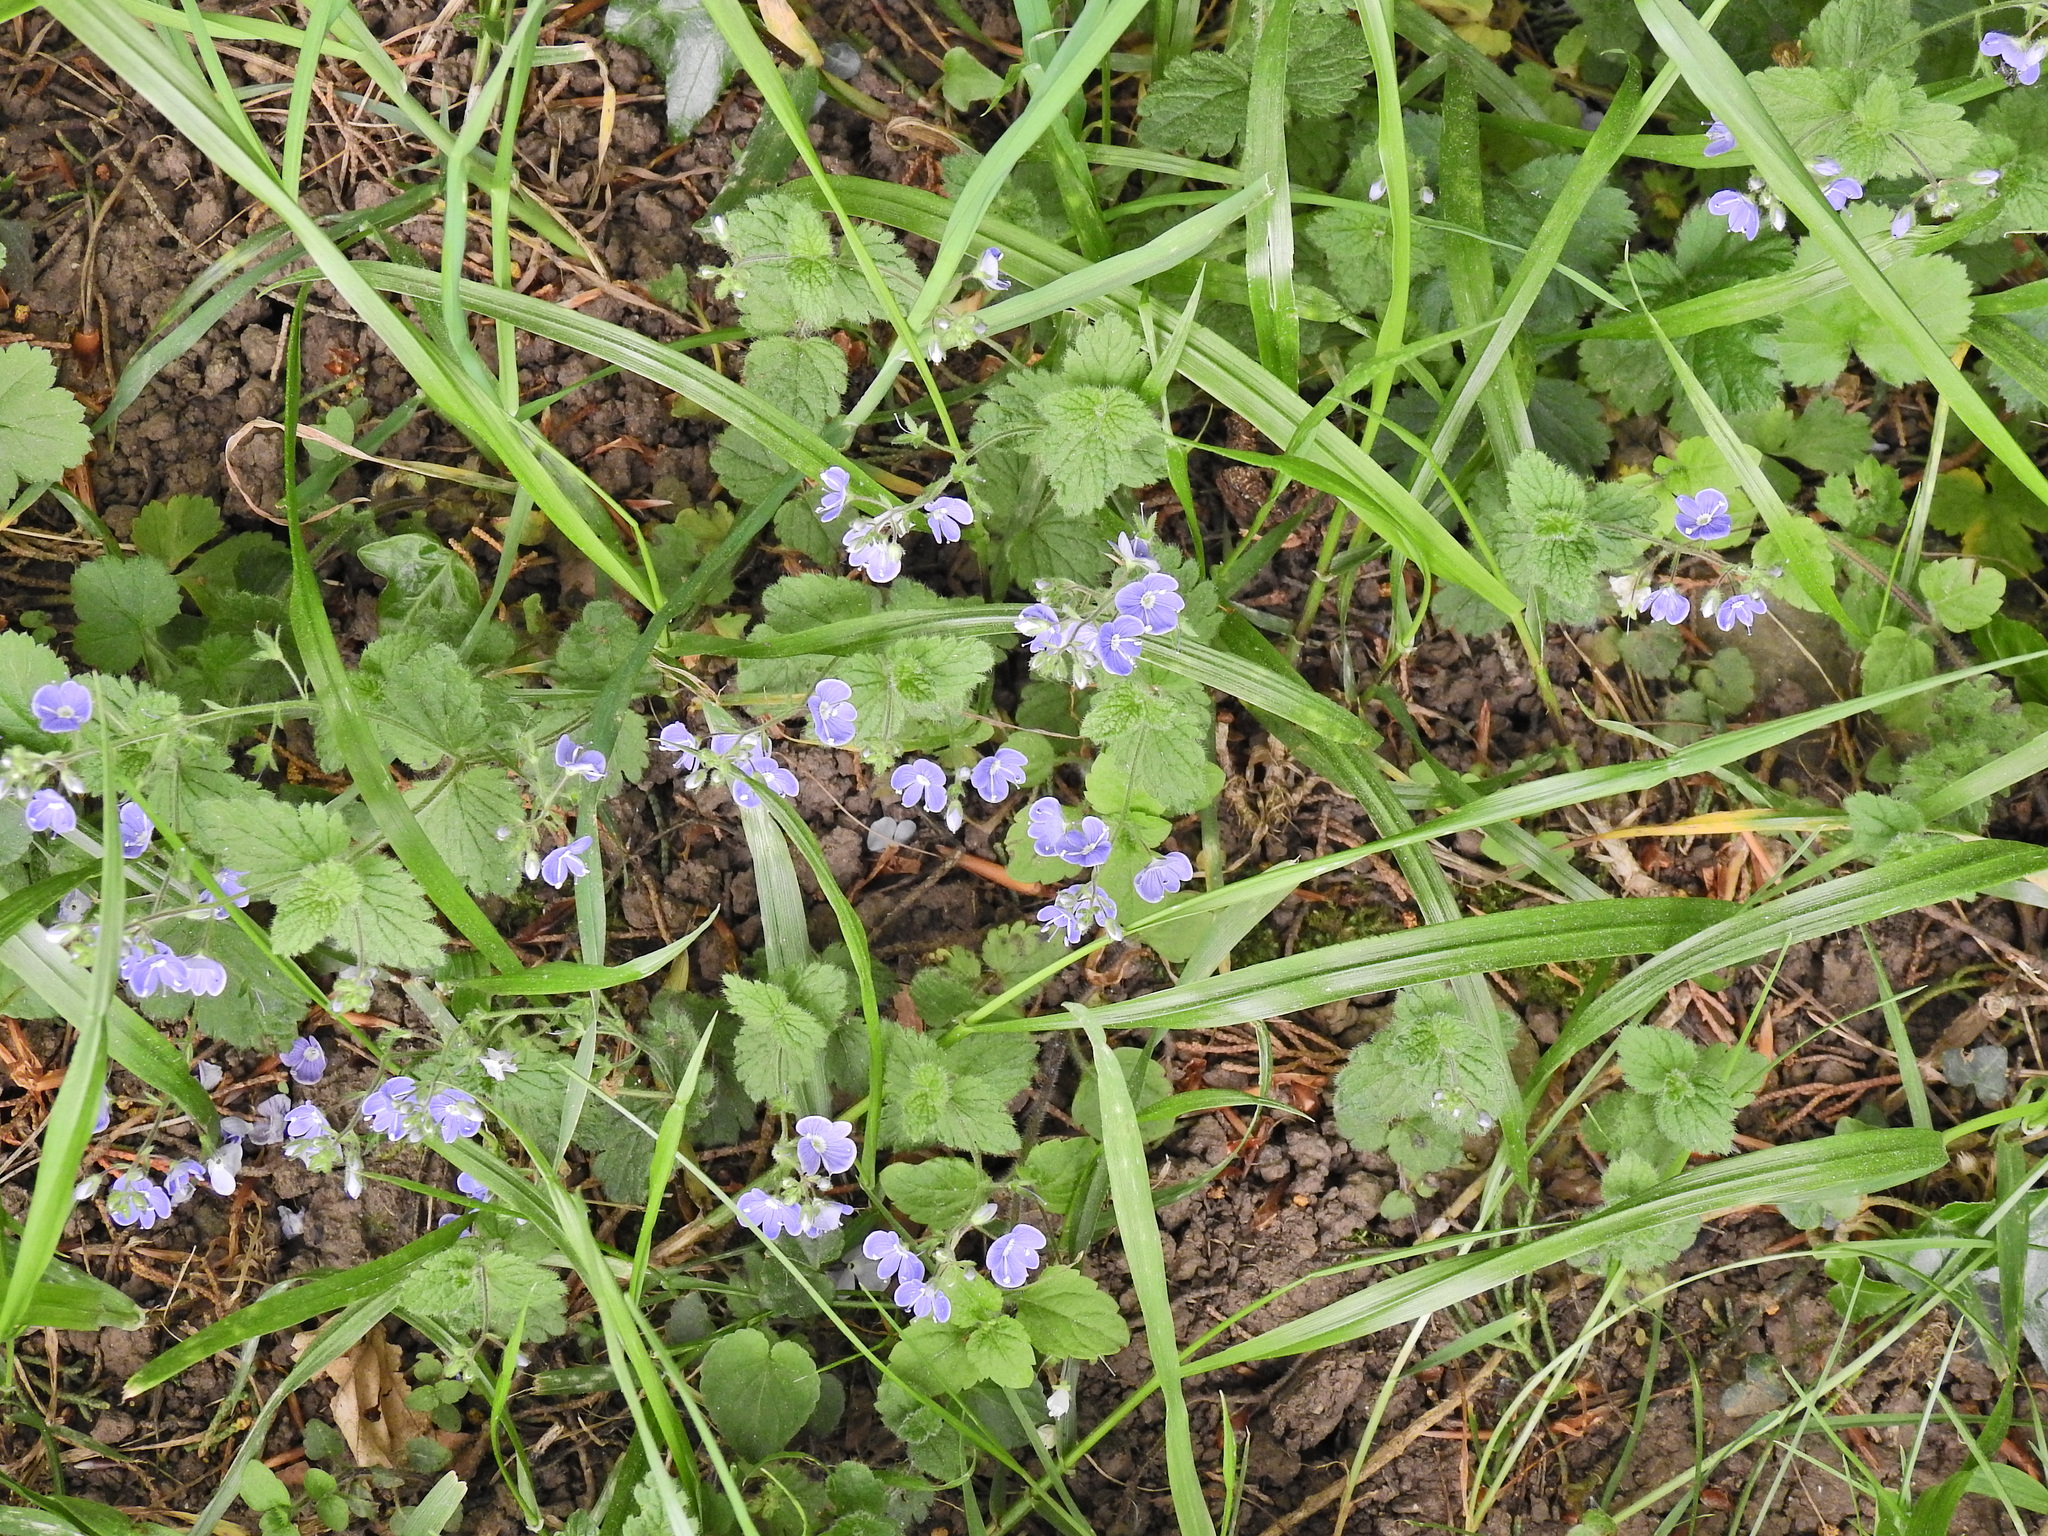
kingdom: Plantae
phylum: Tracheophyta
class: Magnoliopsida
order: Lamiales
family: Plantaginaceae
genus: Veronica
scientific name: Veronica chamaedrys
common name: Germander speedwell
